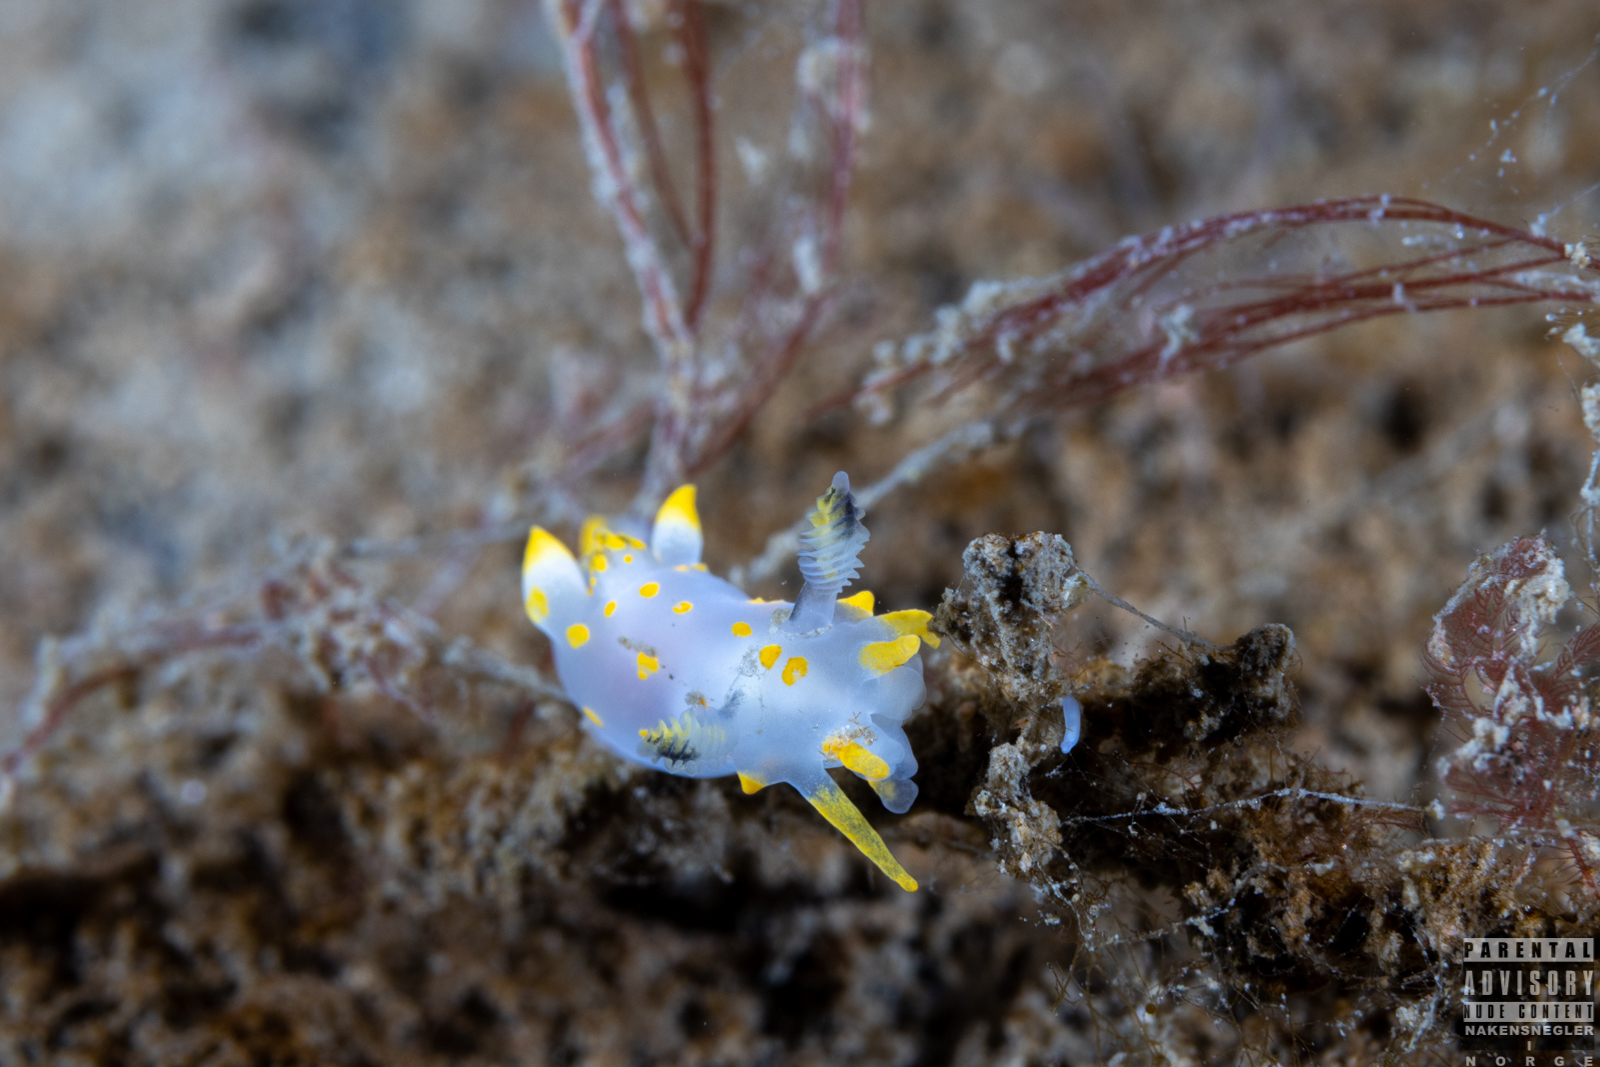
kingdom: Animalia
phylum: Mollusca
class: Gastropoda
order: Nudibranchia
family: Polyceridae
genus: Polycera
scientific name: Polycera quadrilineata
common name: Four-striped polycera
